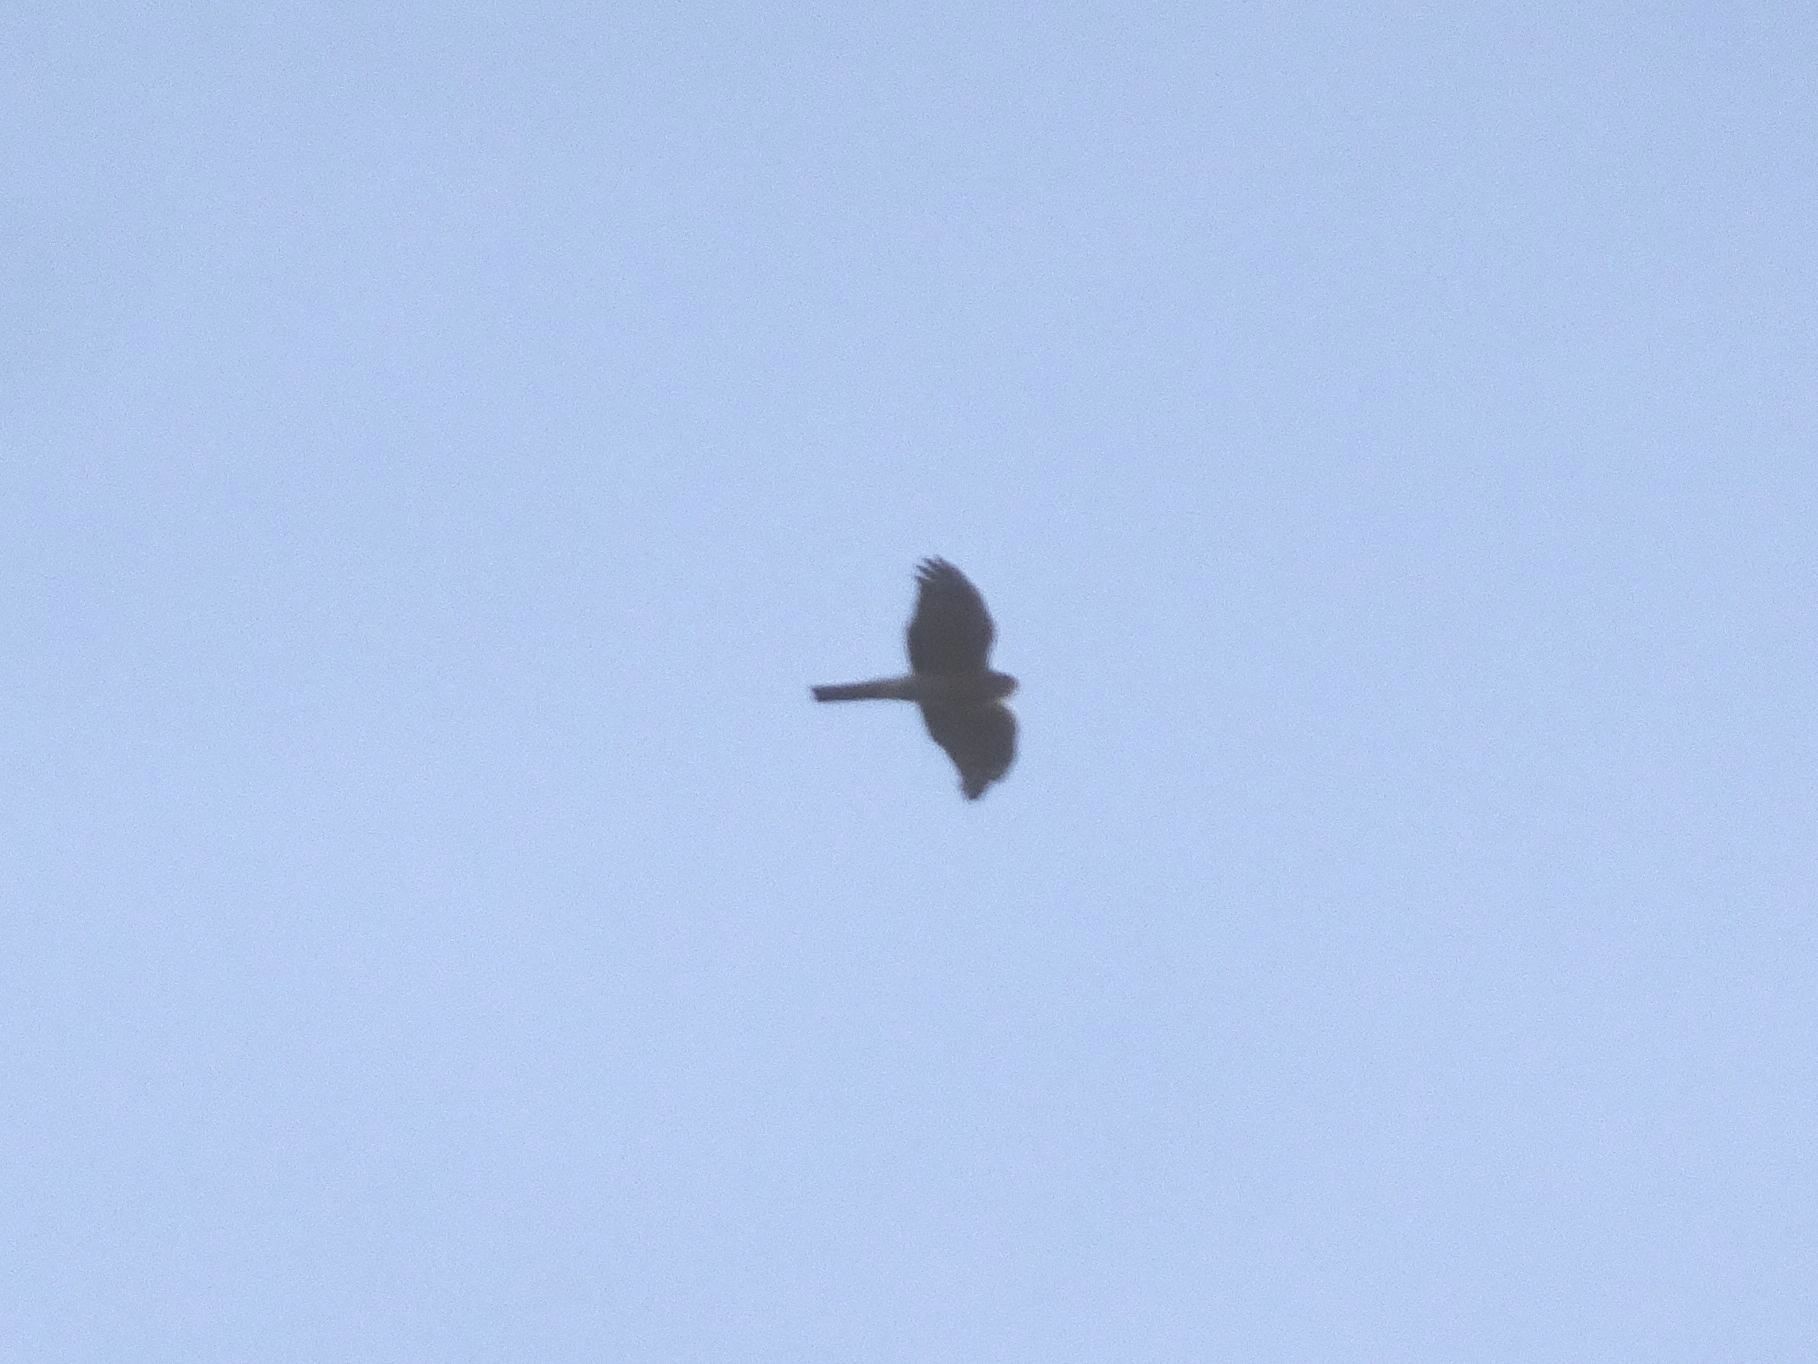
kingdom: Animalia
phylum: Chordata
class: Aves
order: Accipitriformes
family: Accipitridae
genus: Accipiter
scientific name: Accipiter nisus
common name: Eurasian sparrowhawk
